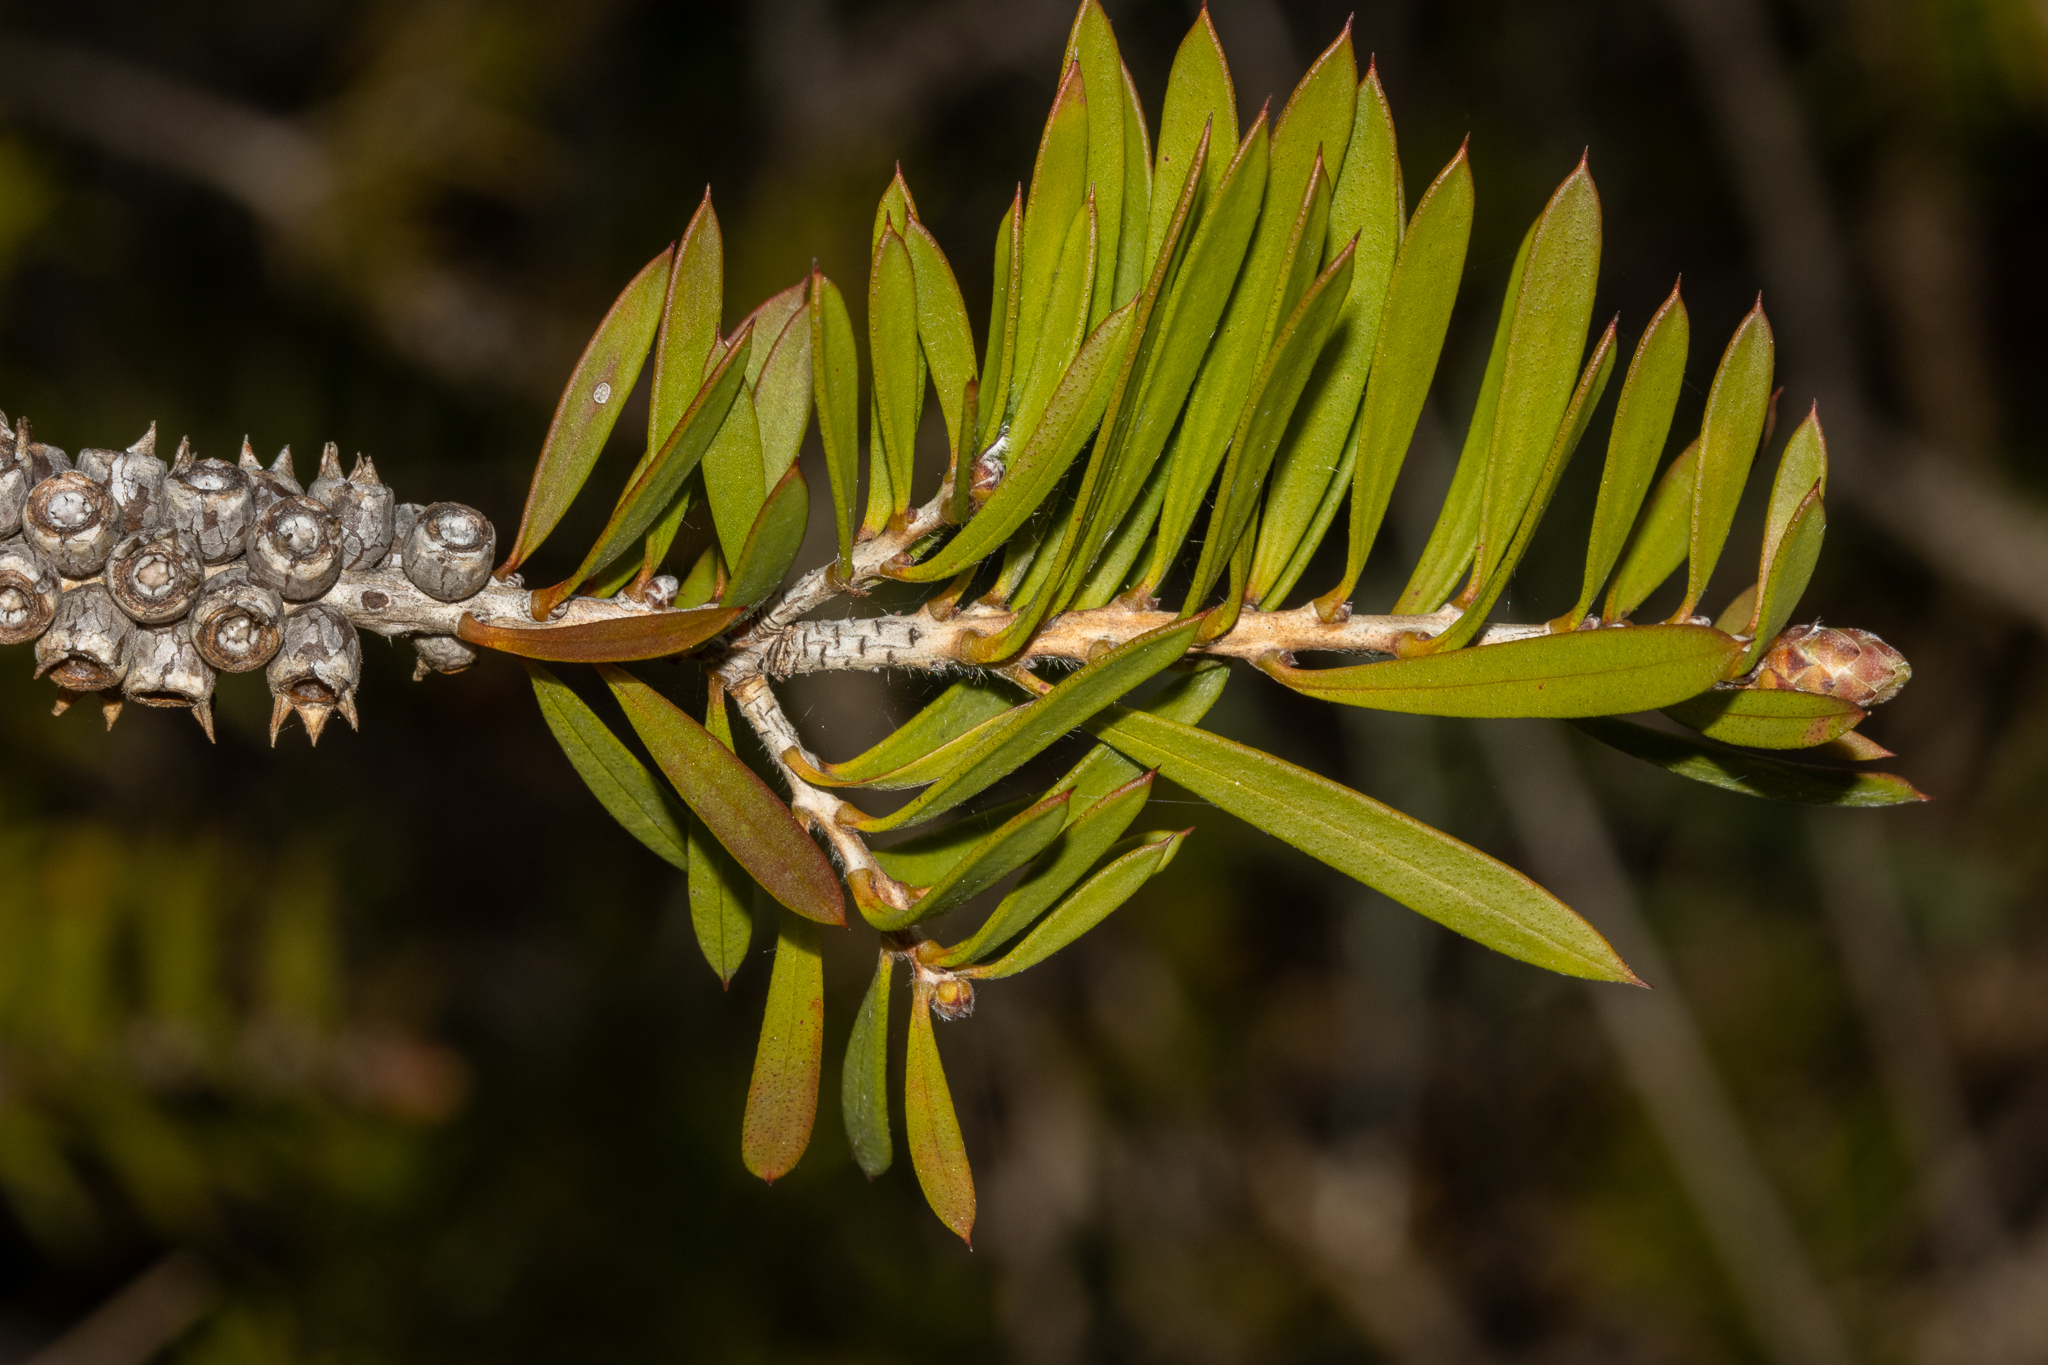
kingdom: Plantae
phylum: Tracheophyta
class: Magnoliopsida
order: Myrtales
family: Myrtaceae
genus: Callistemon
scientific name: Callistemon rugulosus
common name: Scarlet bottlebrush
